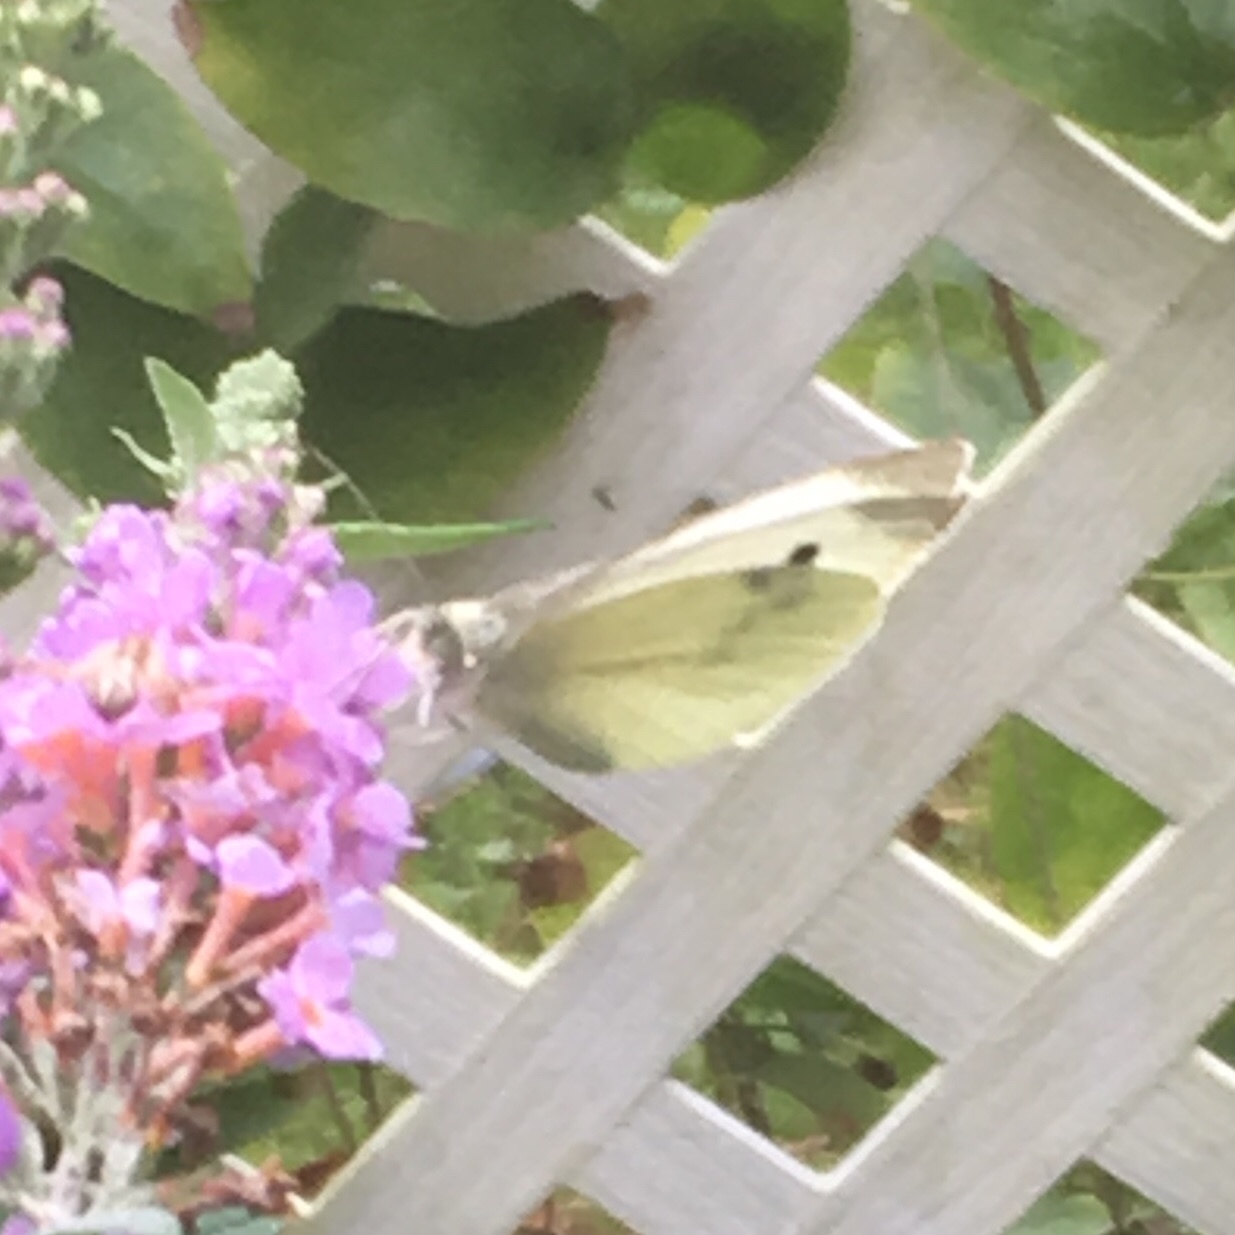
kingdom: Animalia
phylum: Arthropoda
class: Insecta
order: Lepidoptera
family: Pieridae
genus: Pieris
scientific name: Pieris rapae
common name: Small white
